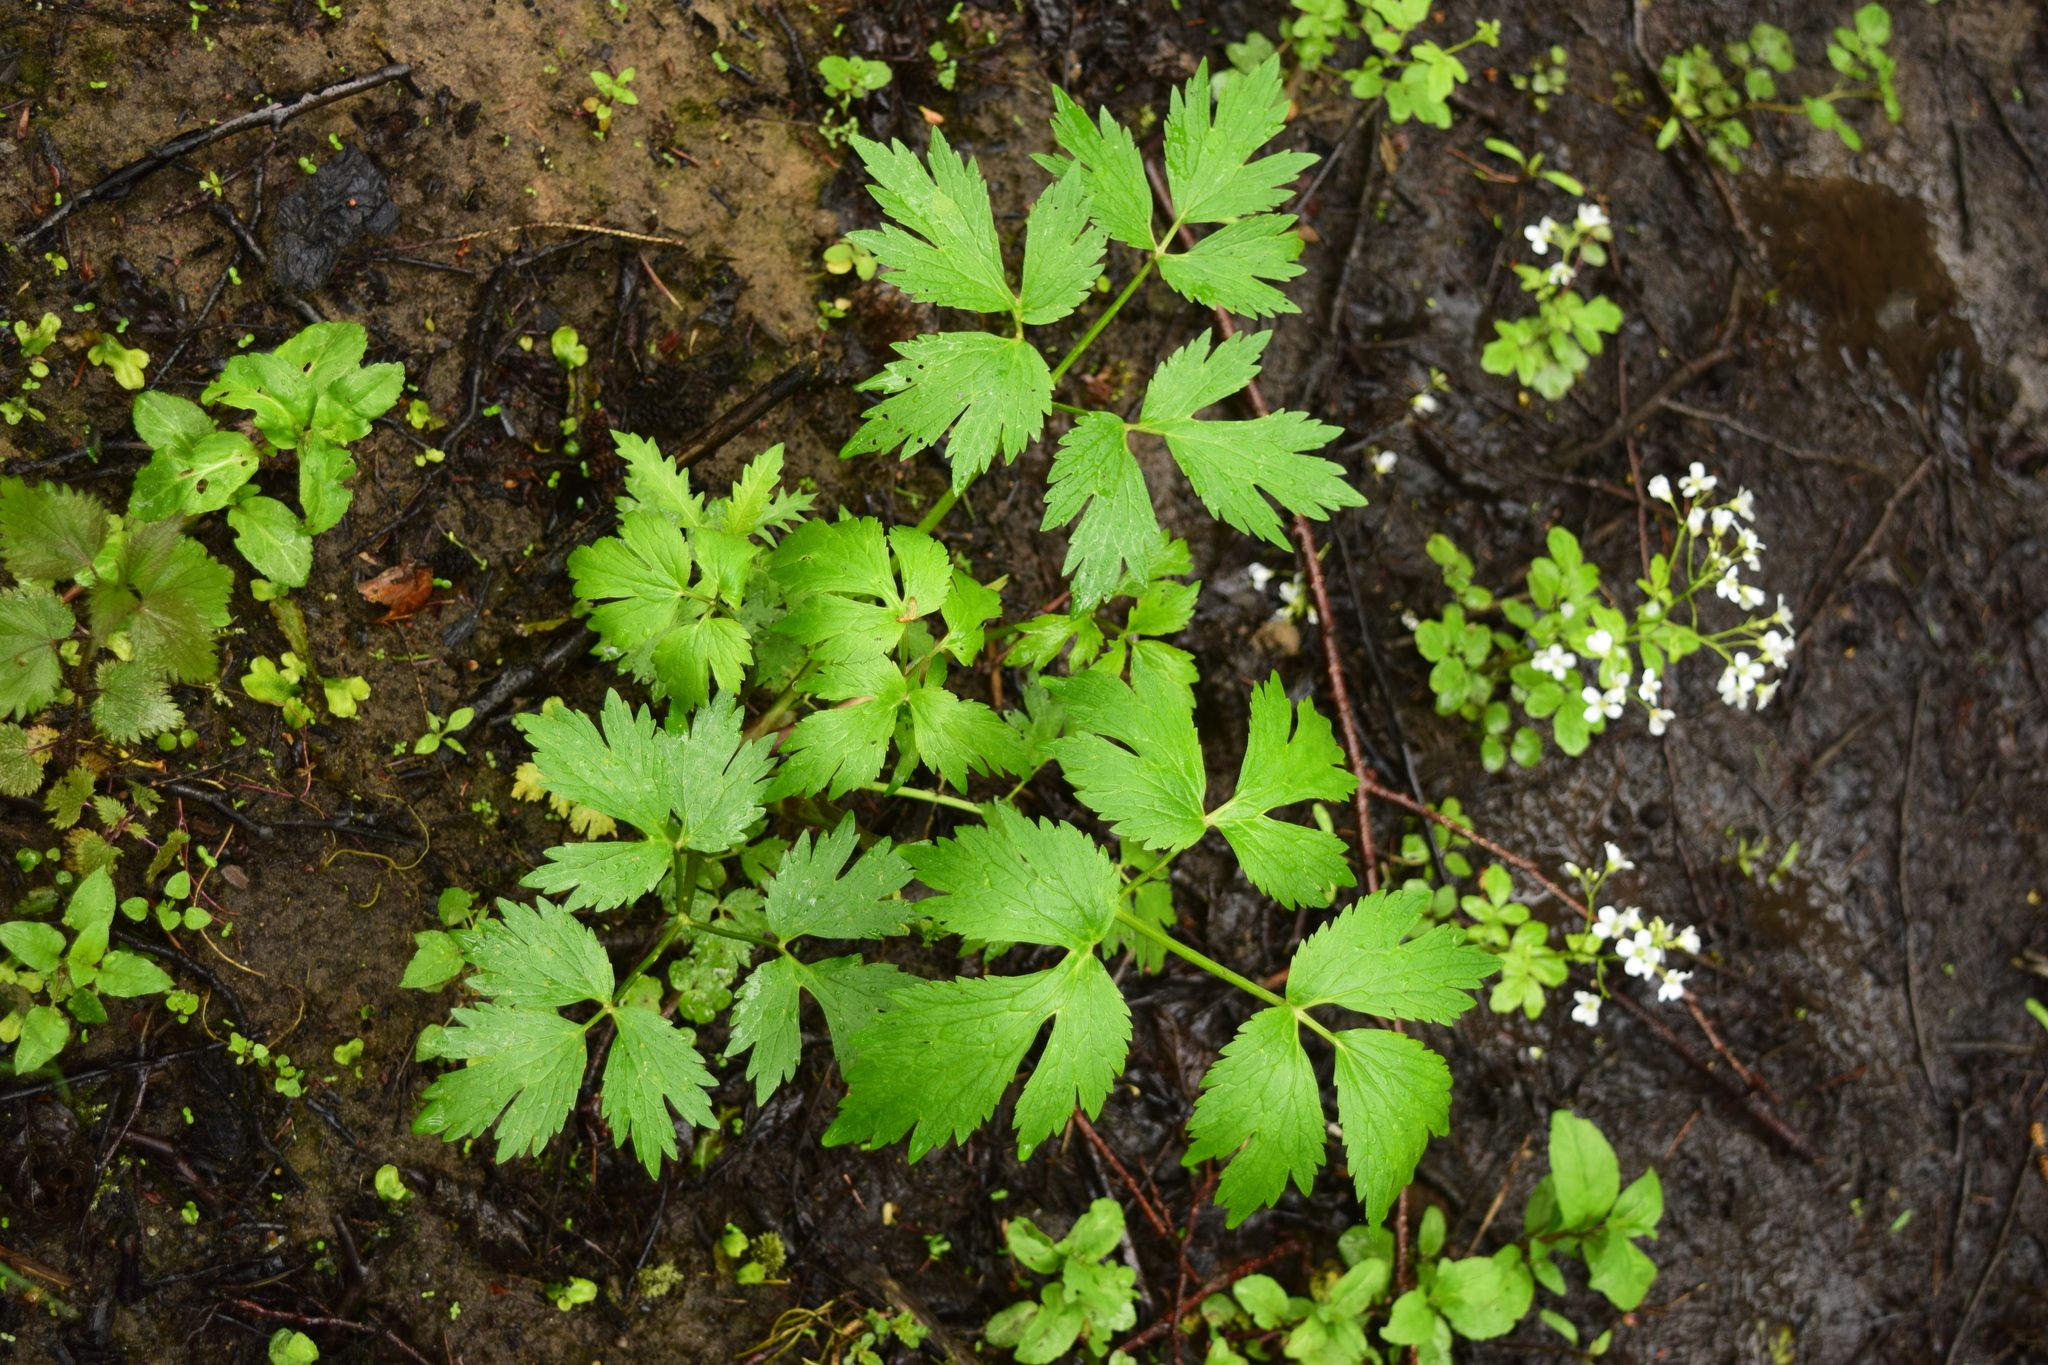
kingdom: Plantae
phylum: Tracheophyta
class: Magnoliopsida
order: Ranunculales
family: Ranunculaceae
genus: Ranunculus
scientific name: Ranunculus repens
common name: Creeping buttercup
